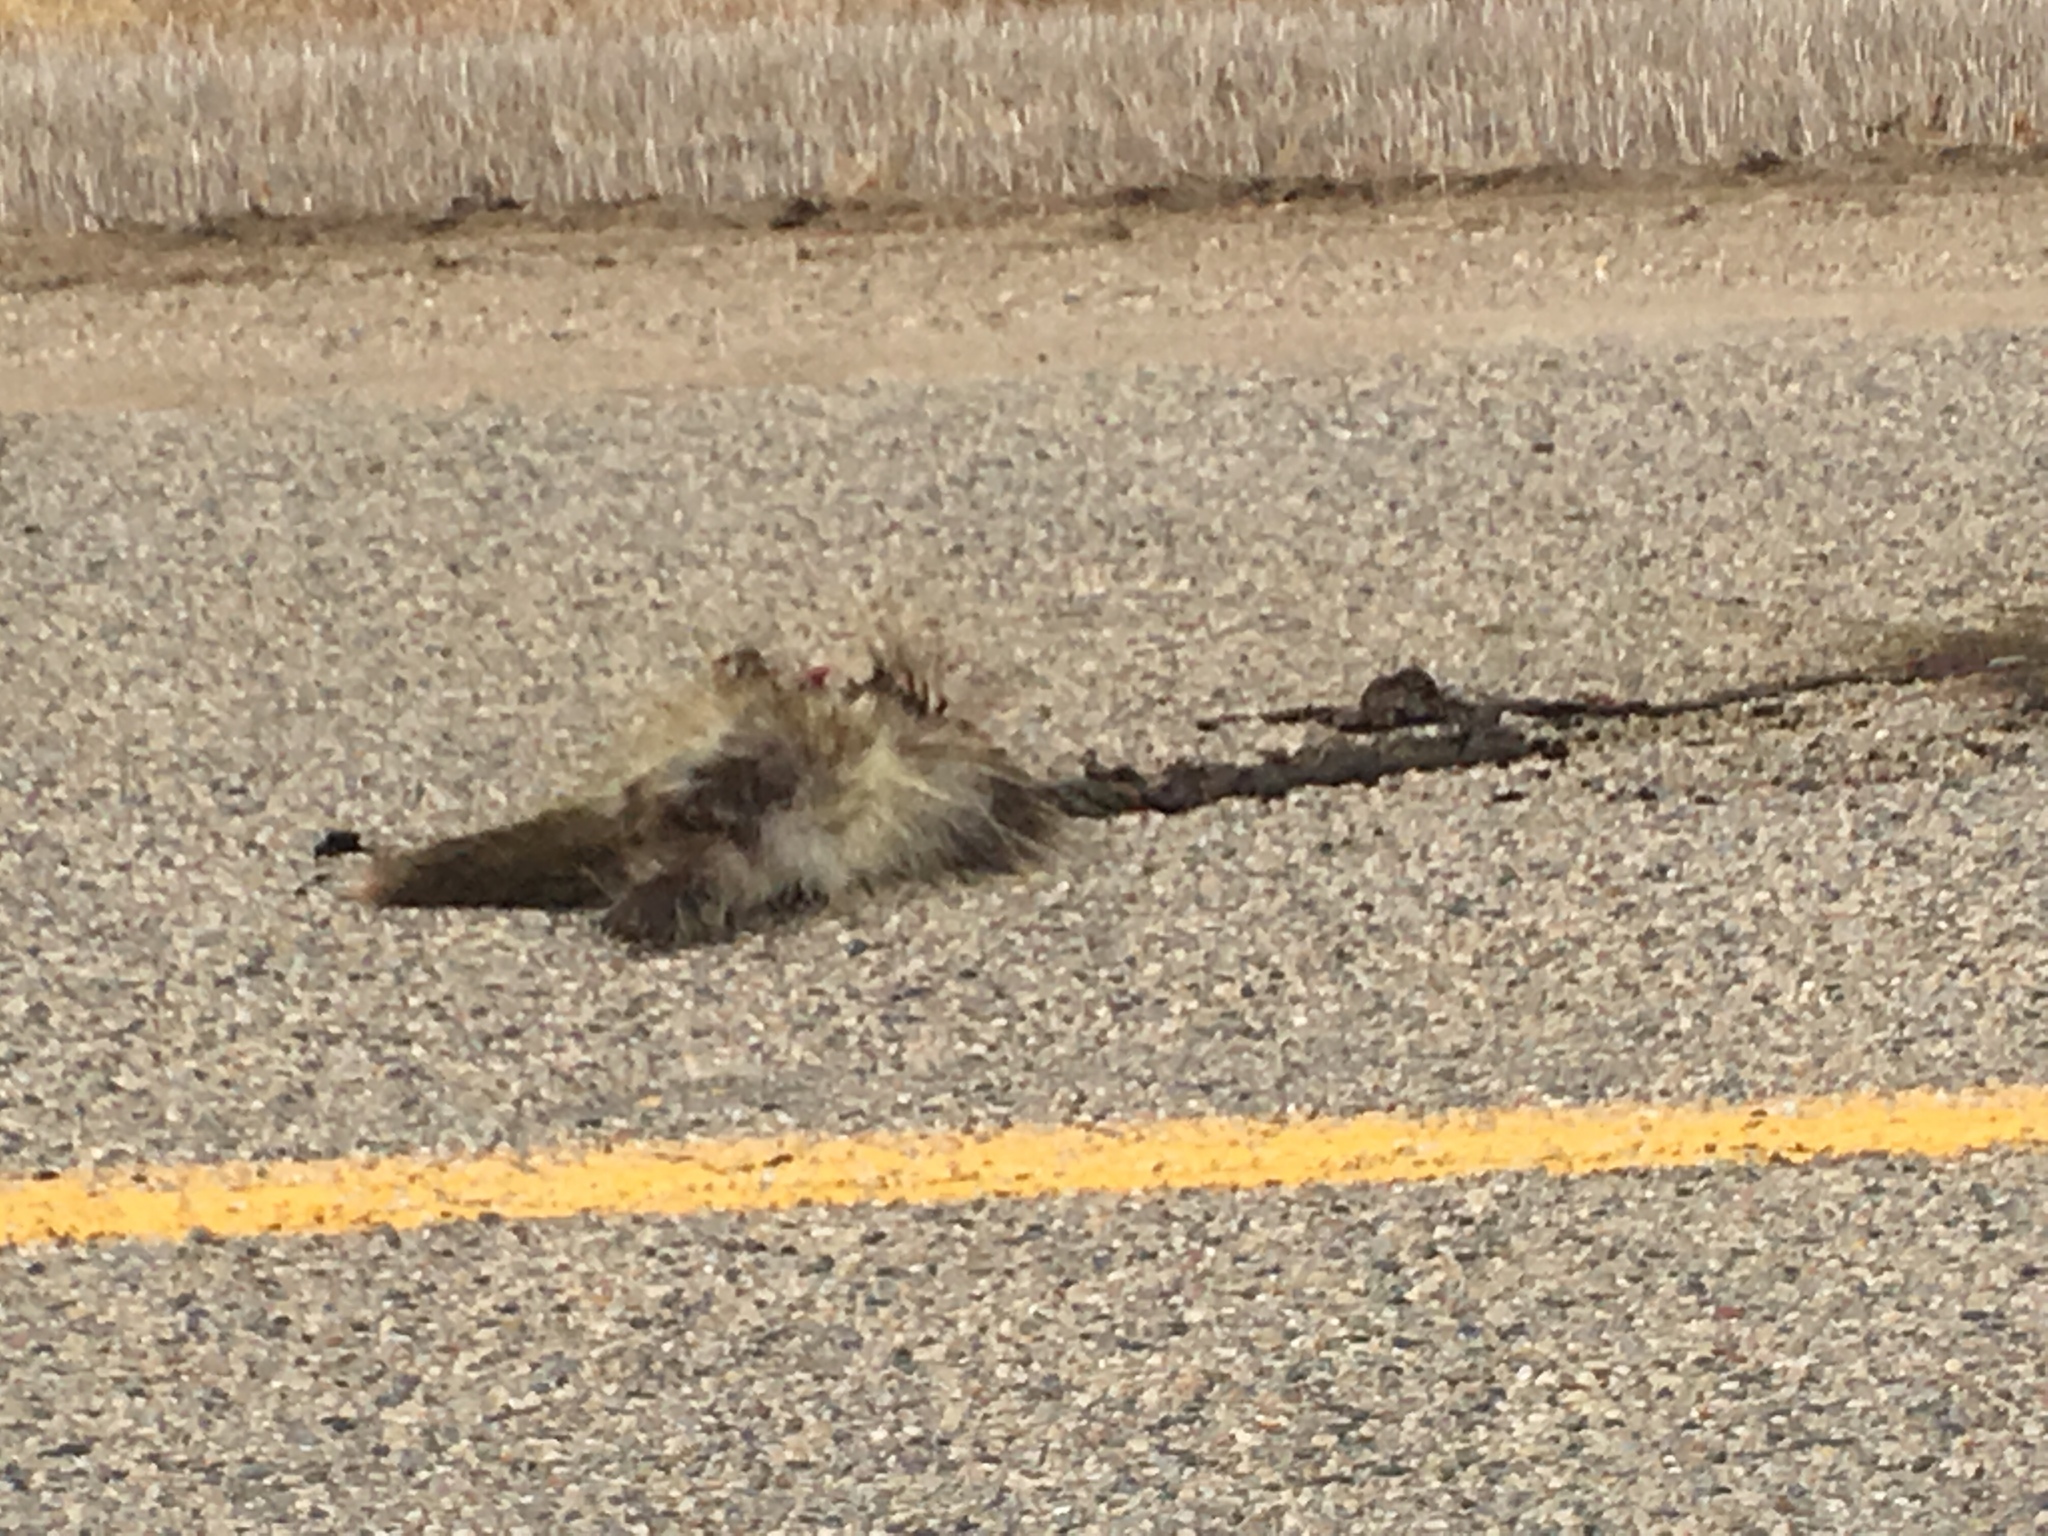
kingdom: Animalia
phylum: Chordata
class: Mammalia
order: Rodentia
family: Erethizontidae
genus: Erethizon
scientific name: Erethizon dorsatus
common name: North american porcupine
